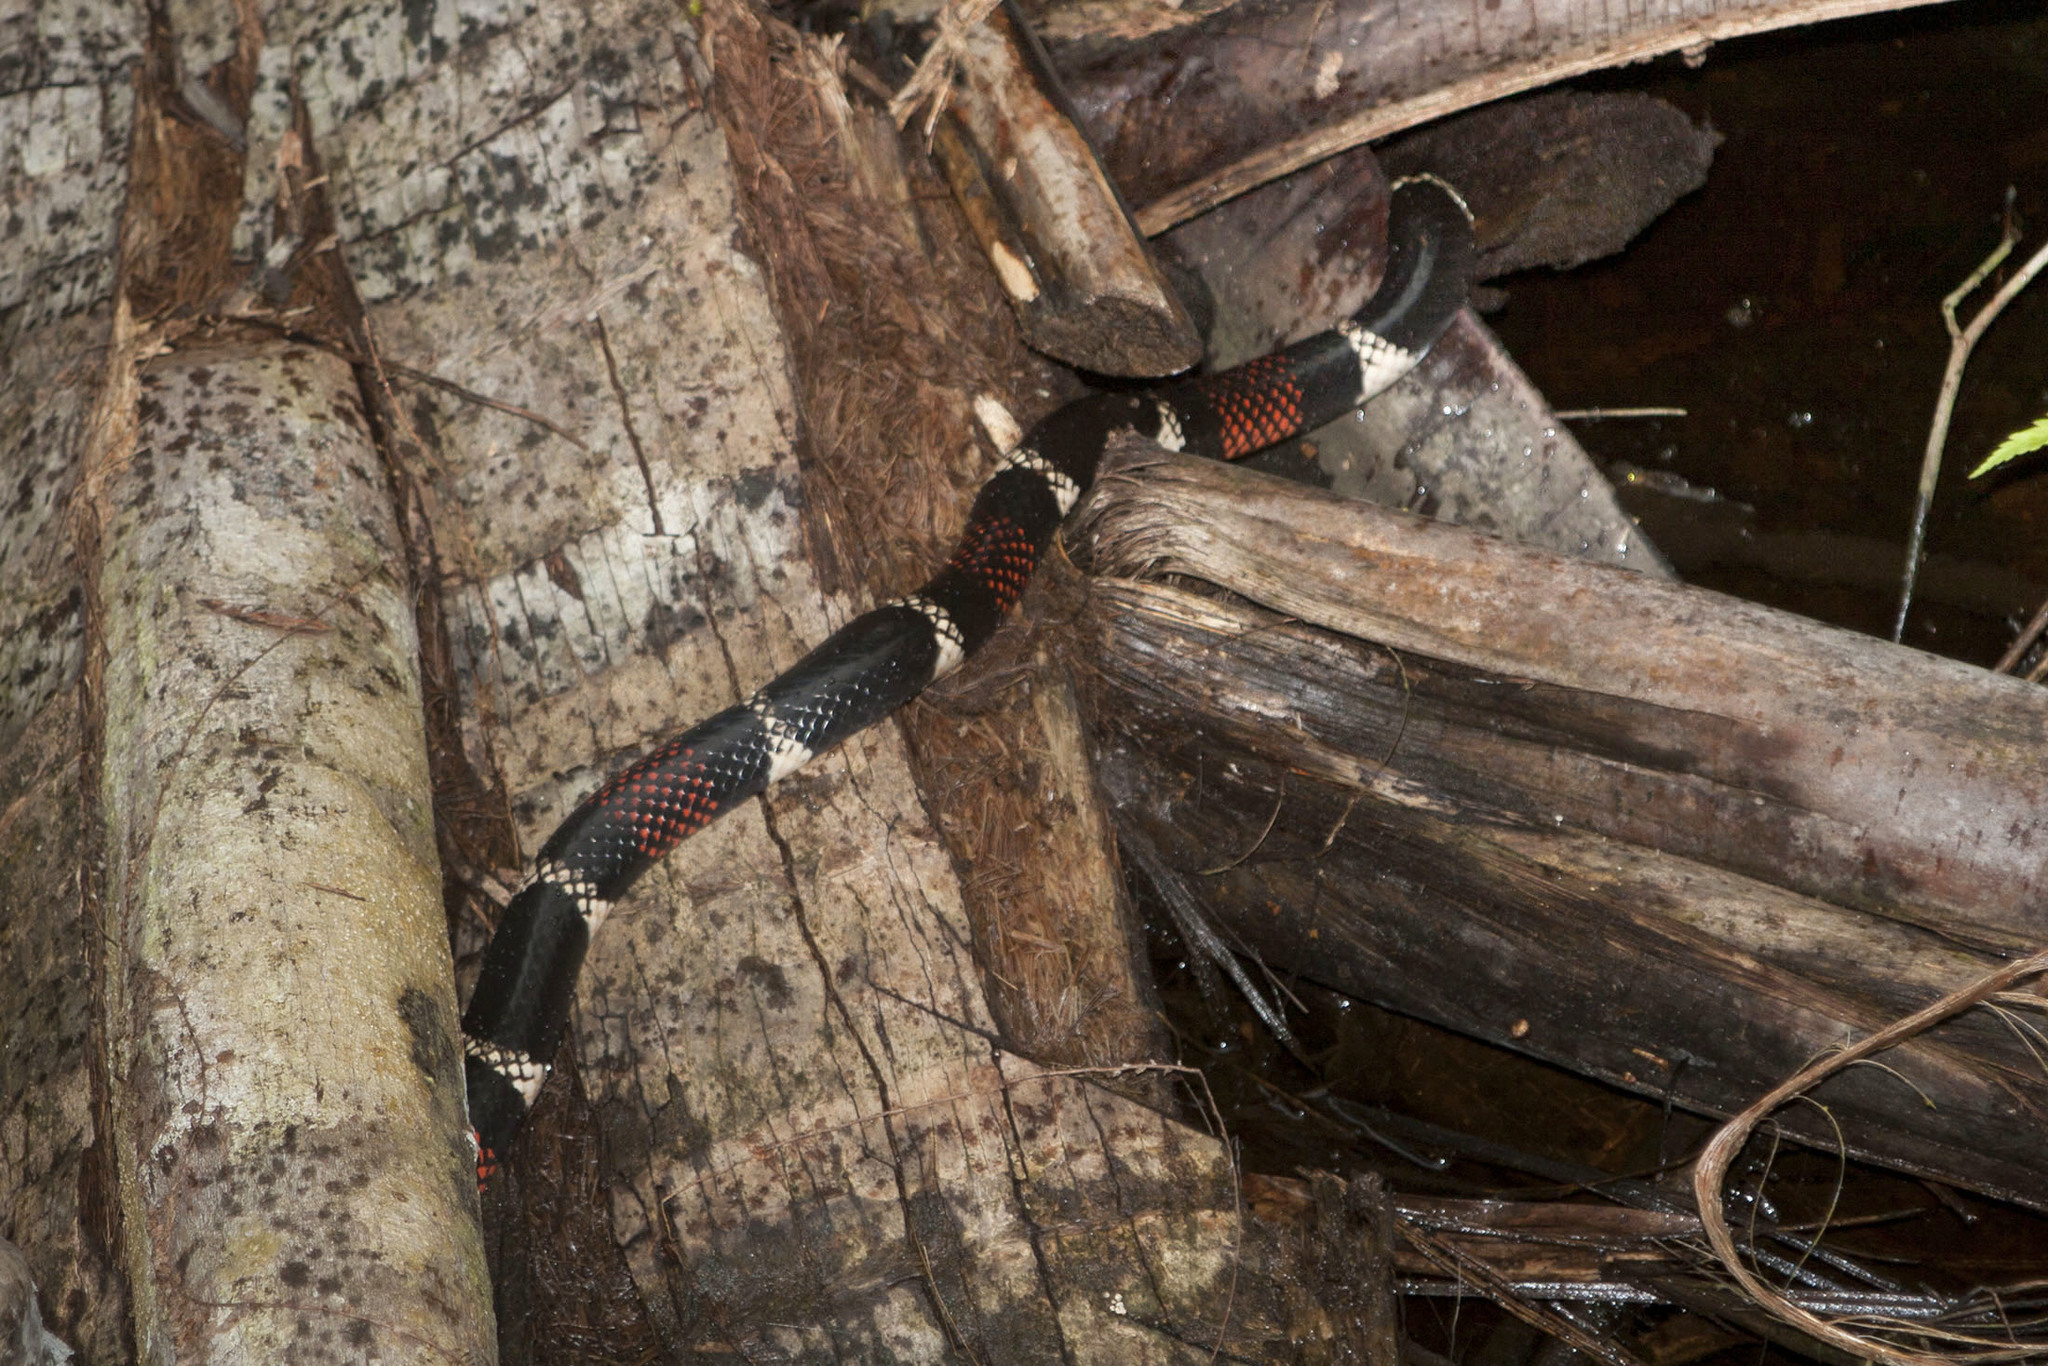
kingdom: Animalia
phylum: Chordata
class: Squamata
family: Elapidae
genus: Micrurus
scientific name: Micrurus surinamensis
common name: Aquatic coral snake
